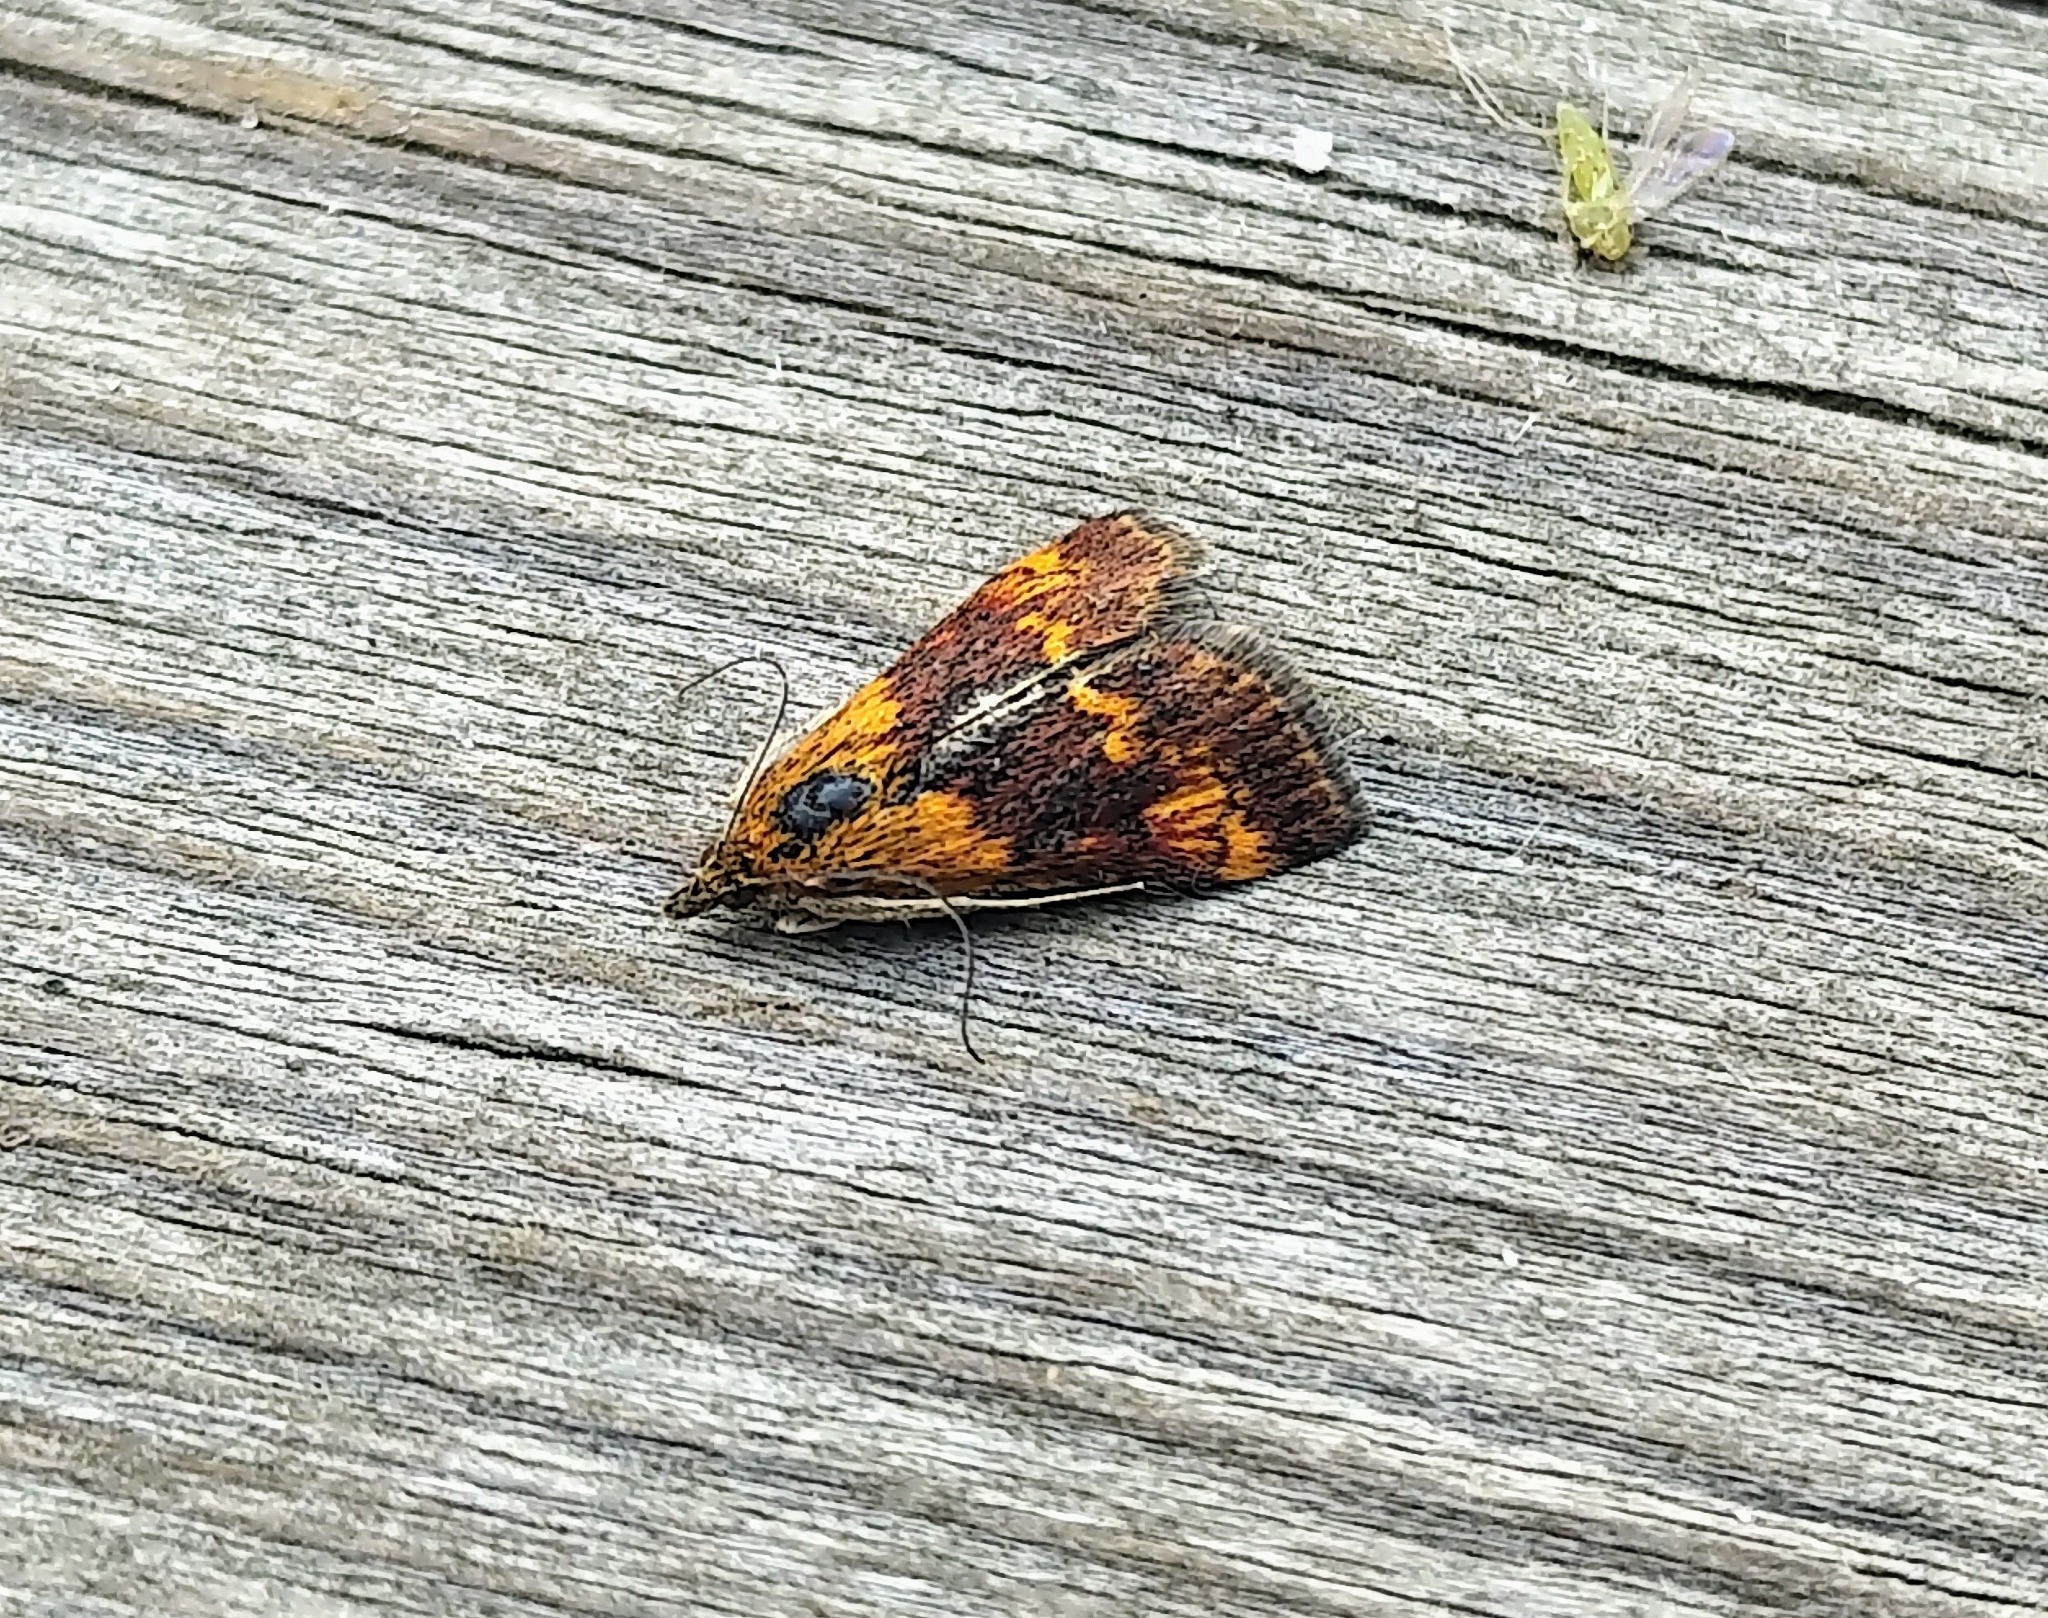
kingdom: Animalia
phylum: Arthropoda
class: Insecta
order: Lepidoptera
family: Crambidae
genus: Pyrausta
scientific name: Pyrausta orphisalis
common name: Orange mint moth
